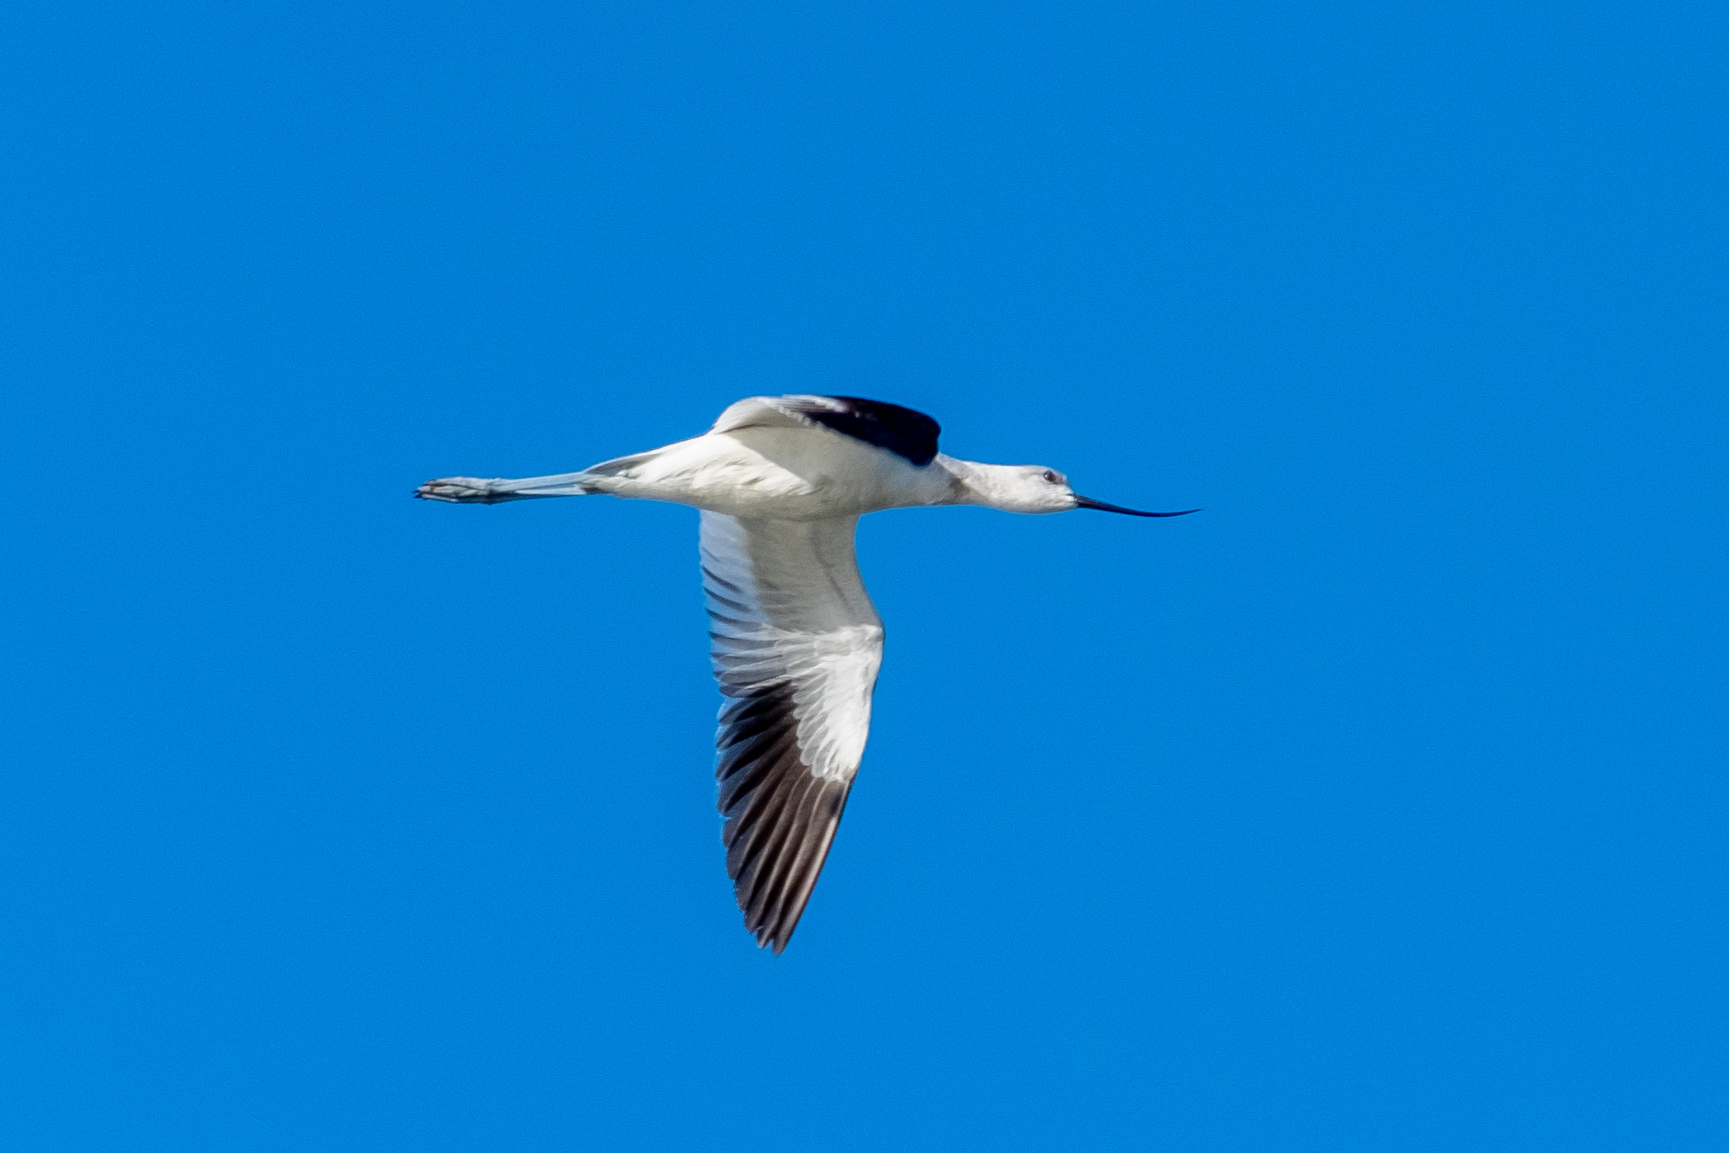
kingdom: Animalia
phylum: Chordata
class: Aves
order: Charadriiformes
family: Recurvirostridae
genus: Recurvirostra
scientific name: Recurvirostra americana
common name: American avocet
